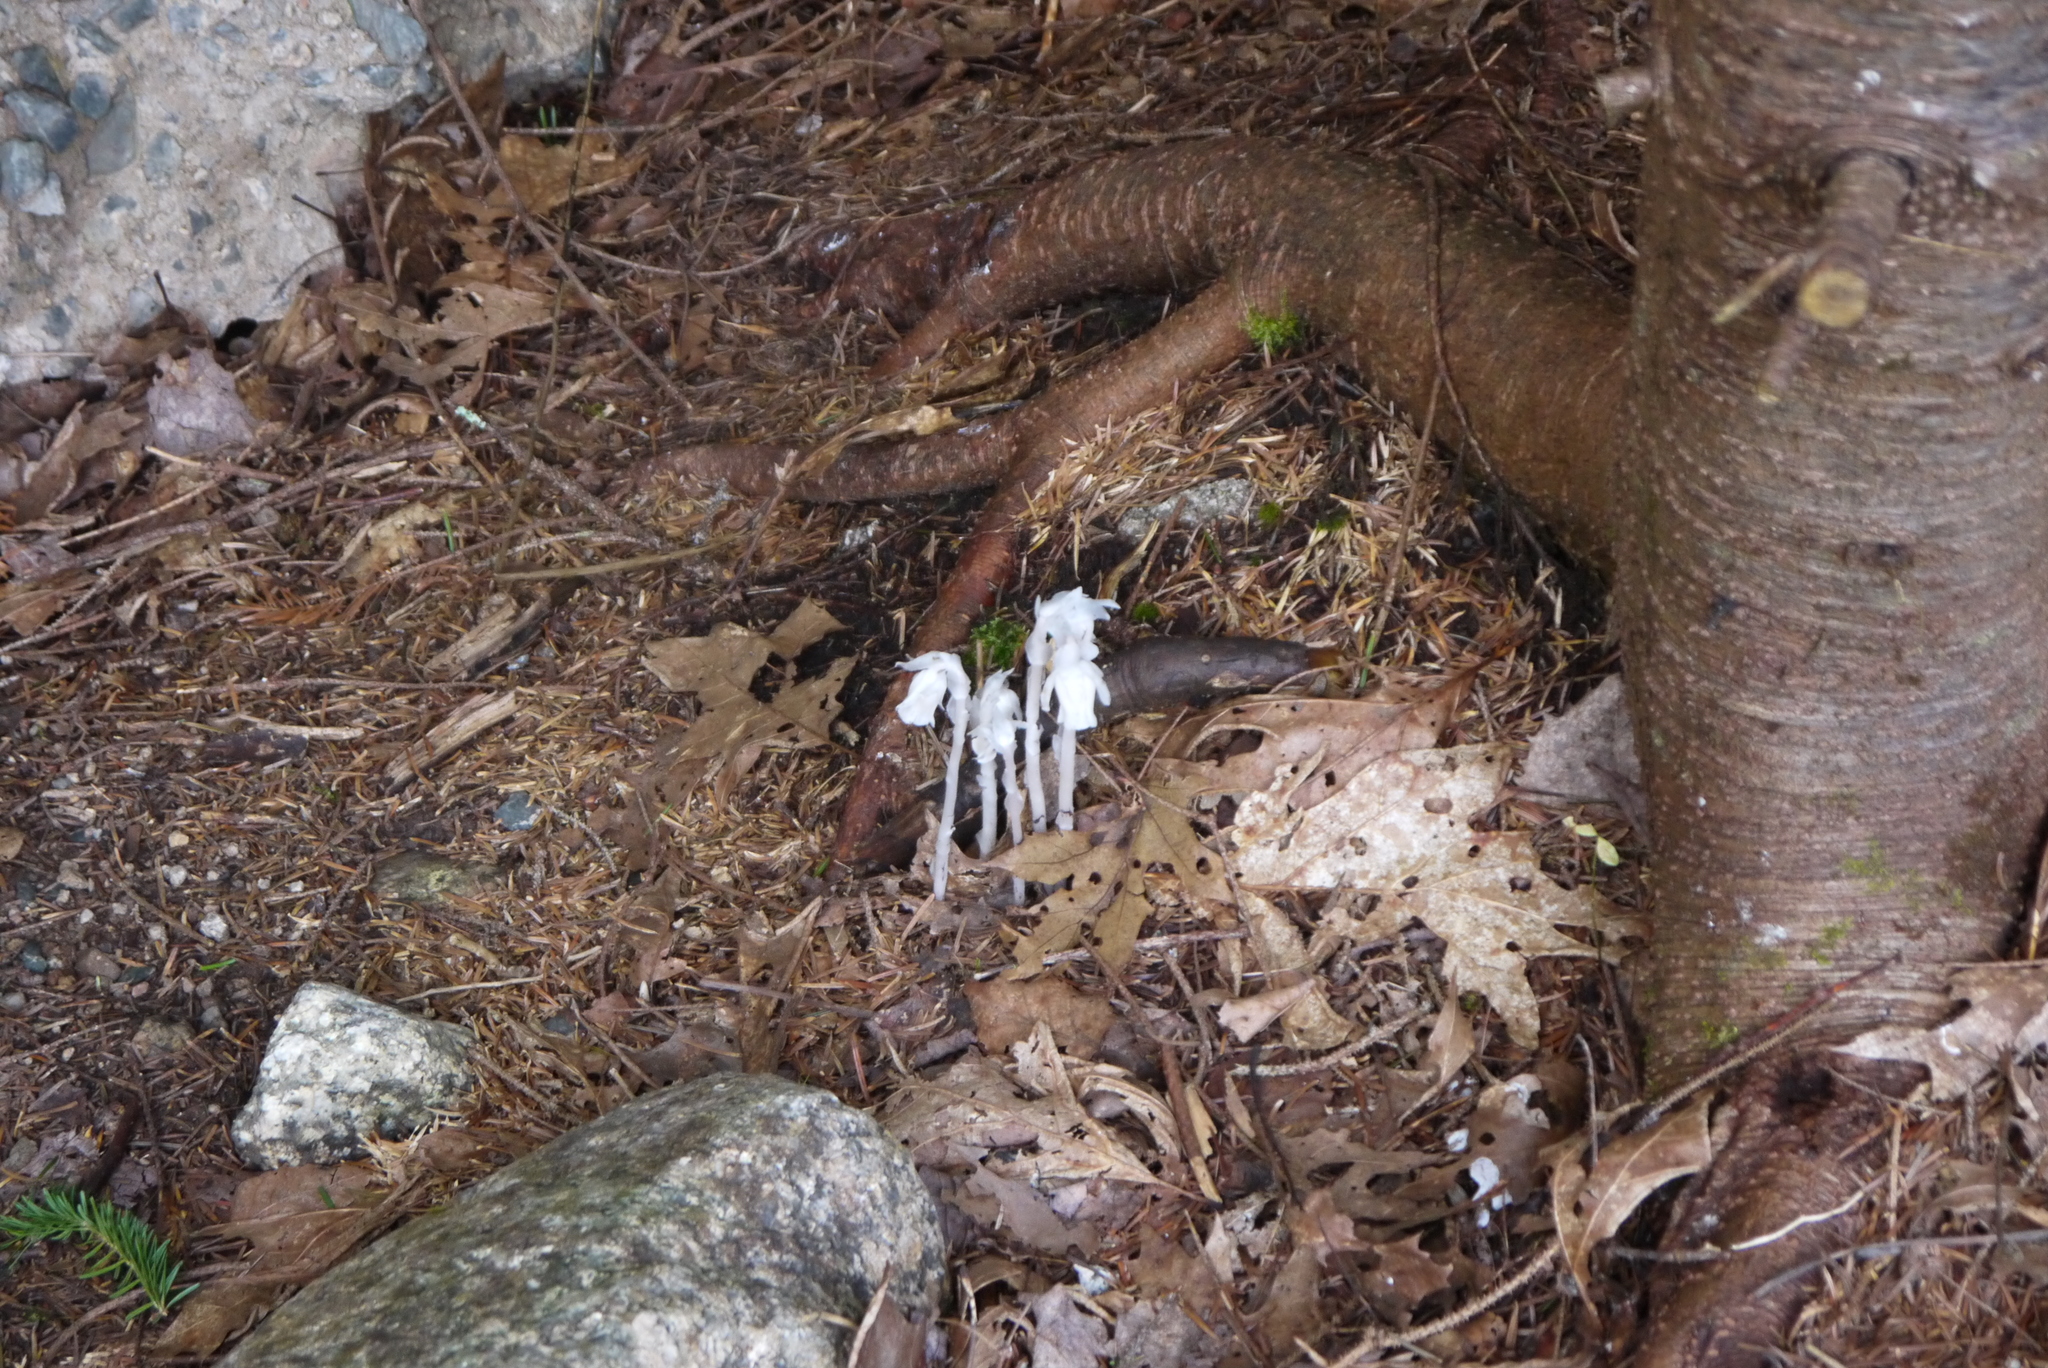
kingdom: Plantae
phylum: Tracheophyta
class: Magnoliopsida
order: Ericales
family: Ericaceae
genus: Monotropa
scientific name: Monotropa uniflora
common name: Convulsion root
